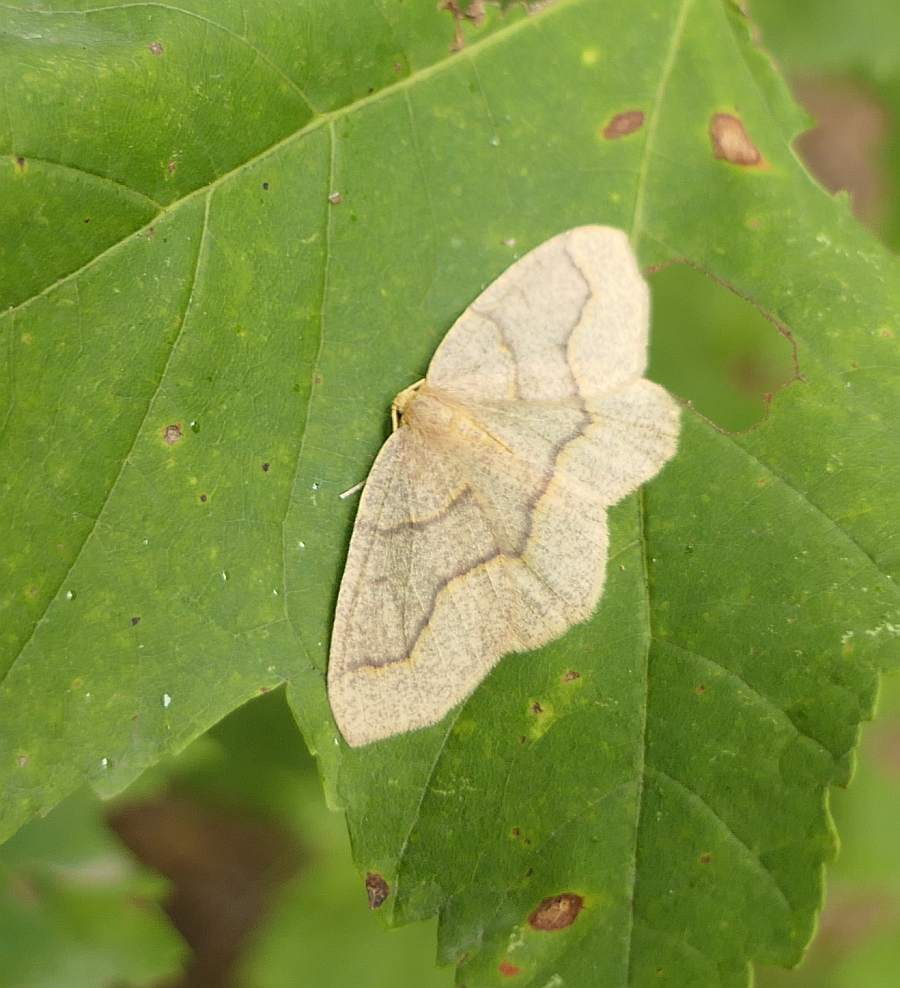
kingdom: Animalia
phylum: Arthropoda
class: Insecta
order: Lepidoptera
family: Geometridae
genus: Lambdina
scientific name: Lambdina fiscellaria
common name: Hemlock looper
